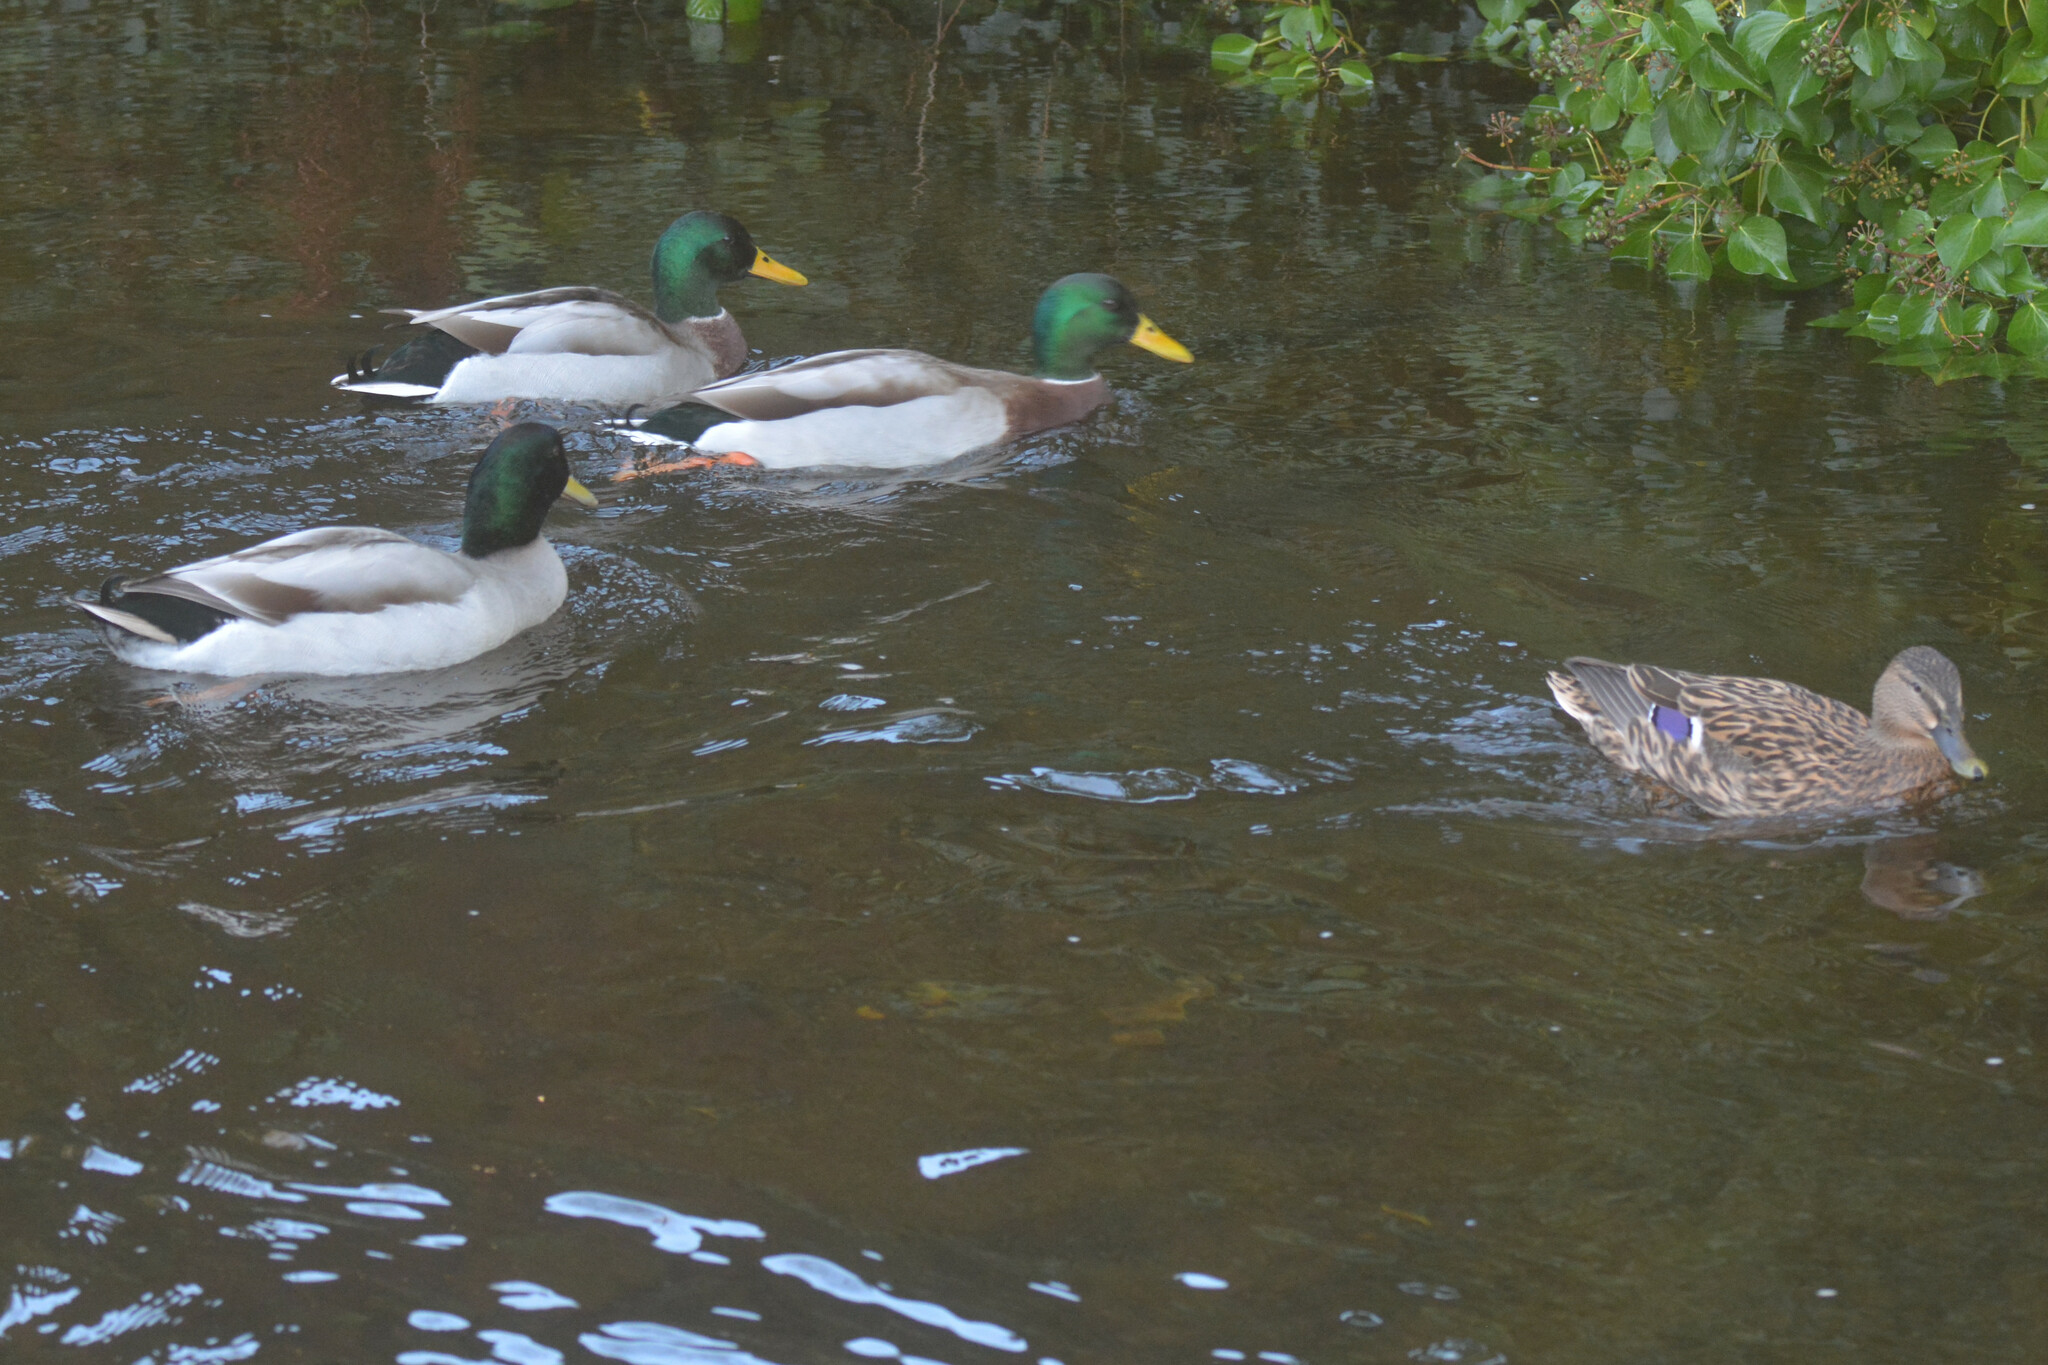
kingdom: Animalia
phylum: Chordata
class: Aves
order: Anseriformes
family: Anatidae
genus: Anas
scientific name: Anas platyrhynchos
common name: Mallard
